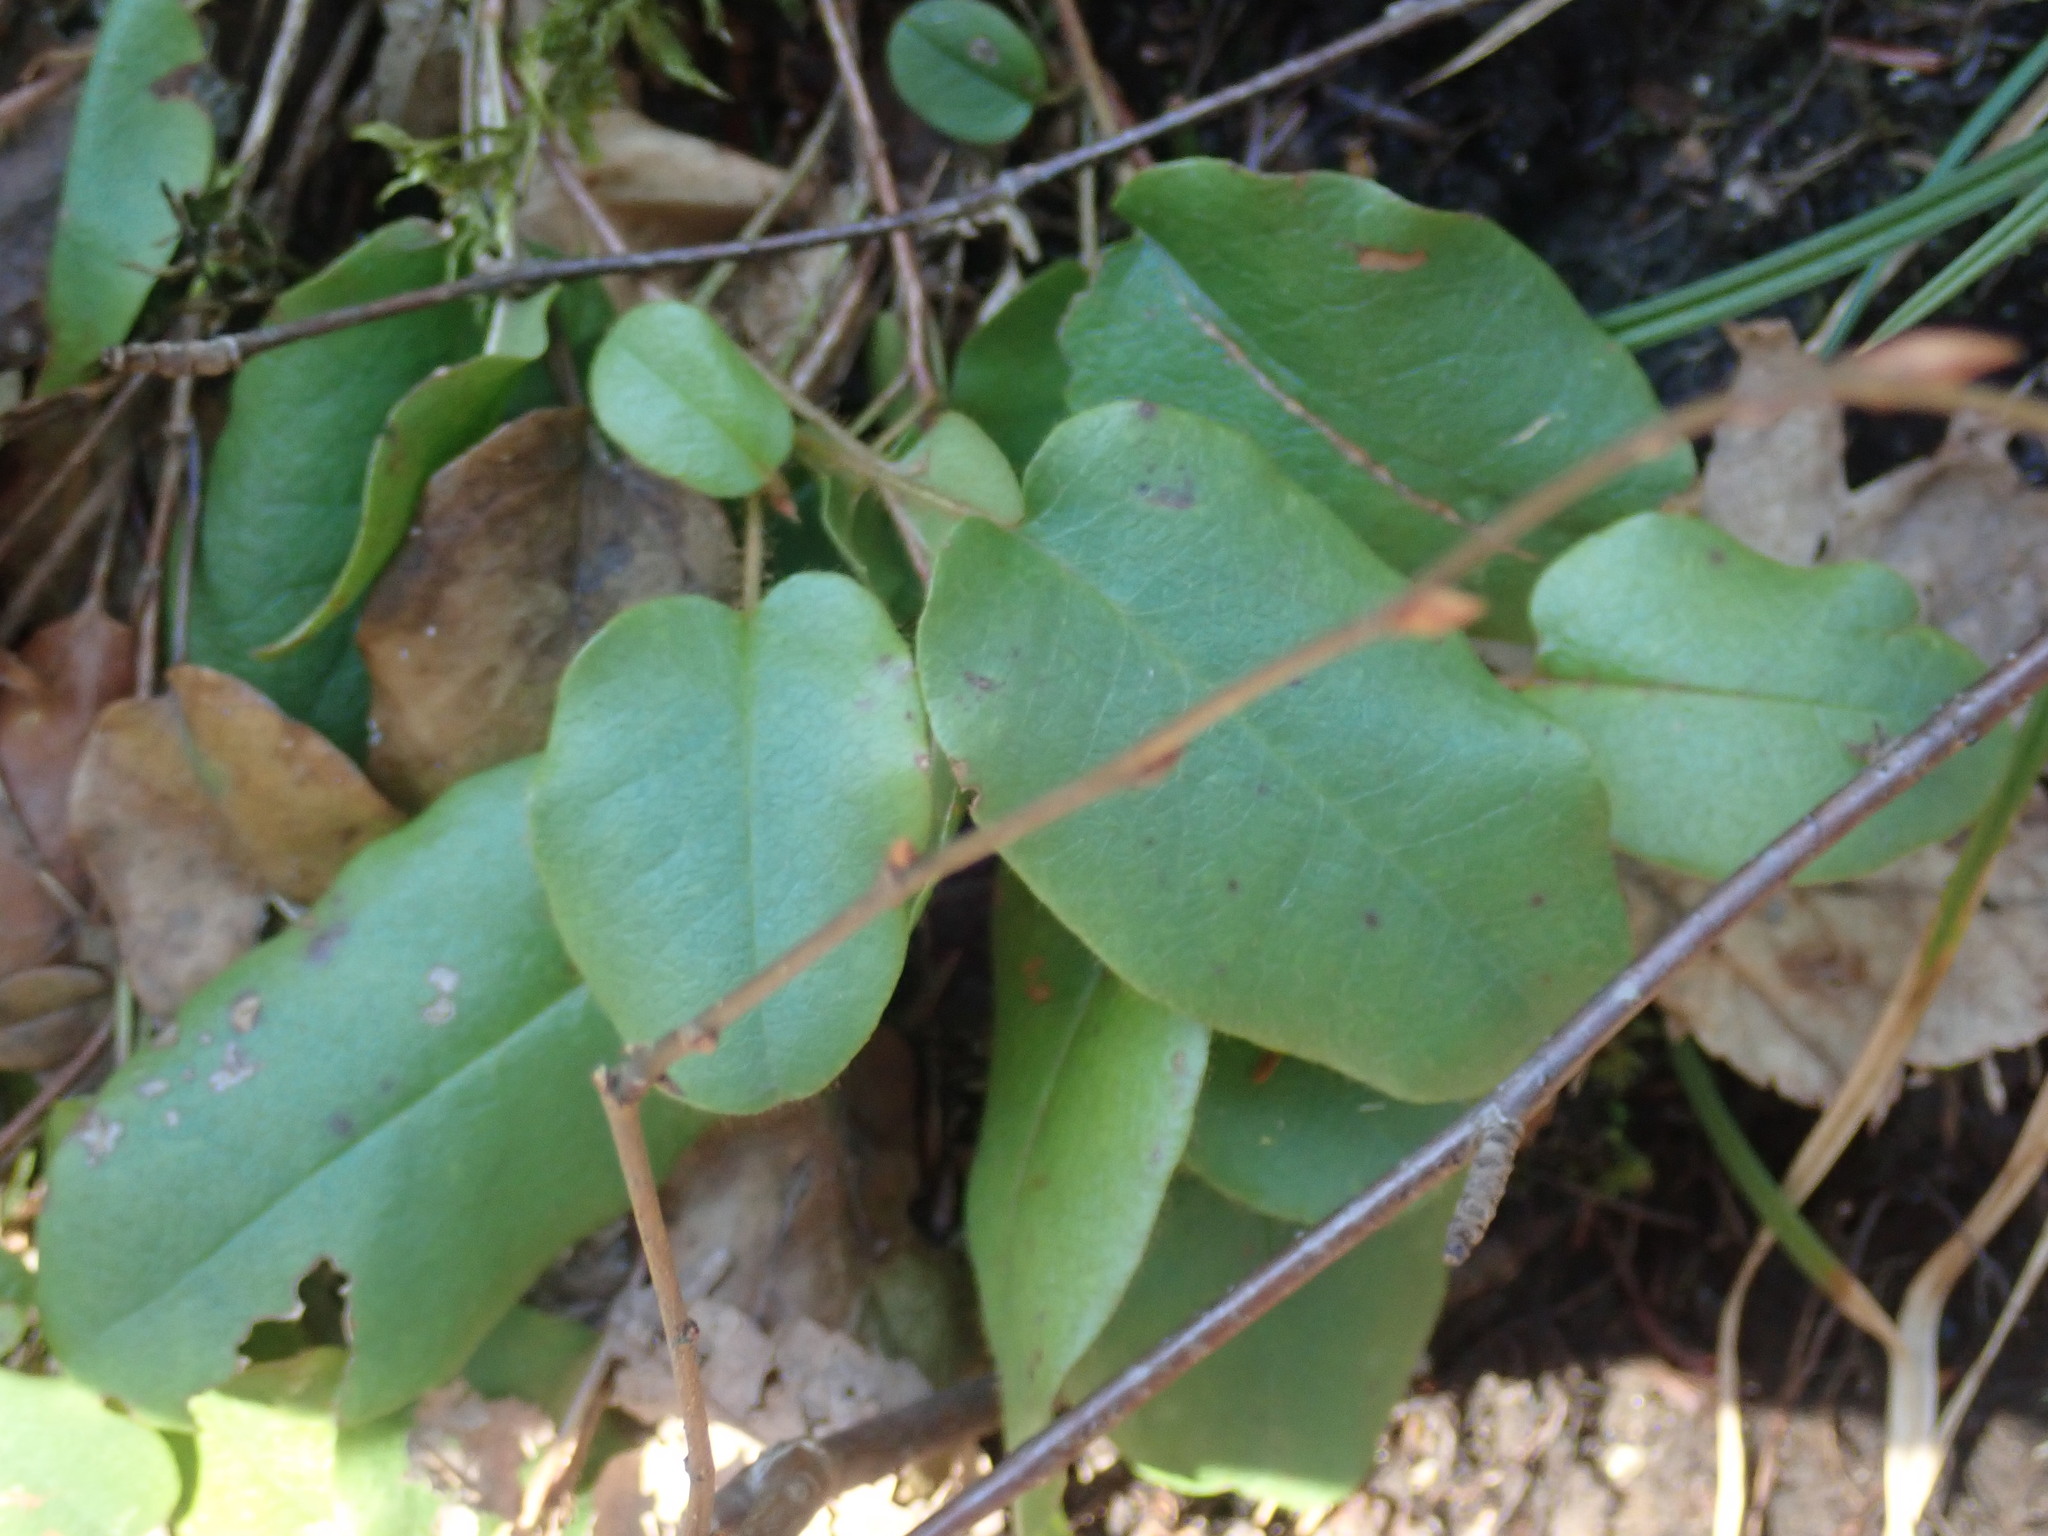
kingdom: Plantae
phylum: Tracheophyta
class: Magnoliopsida
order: Ericales
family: Ericaceae
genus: Epigaea
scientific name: Epigaea repens
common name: Gravelroot
